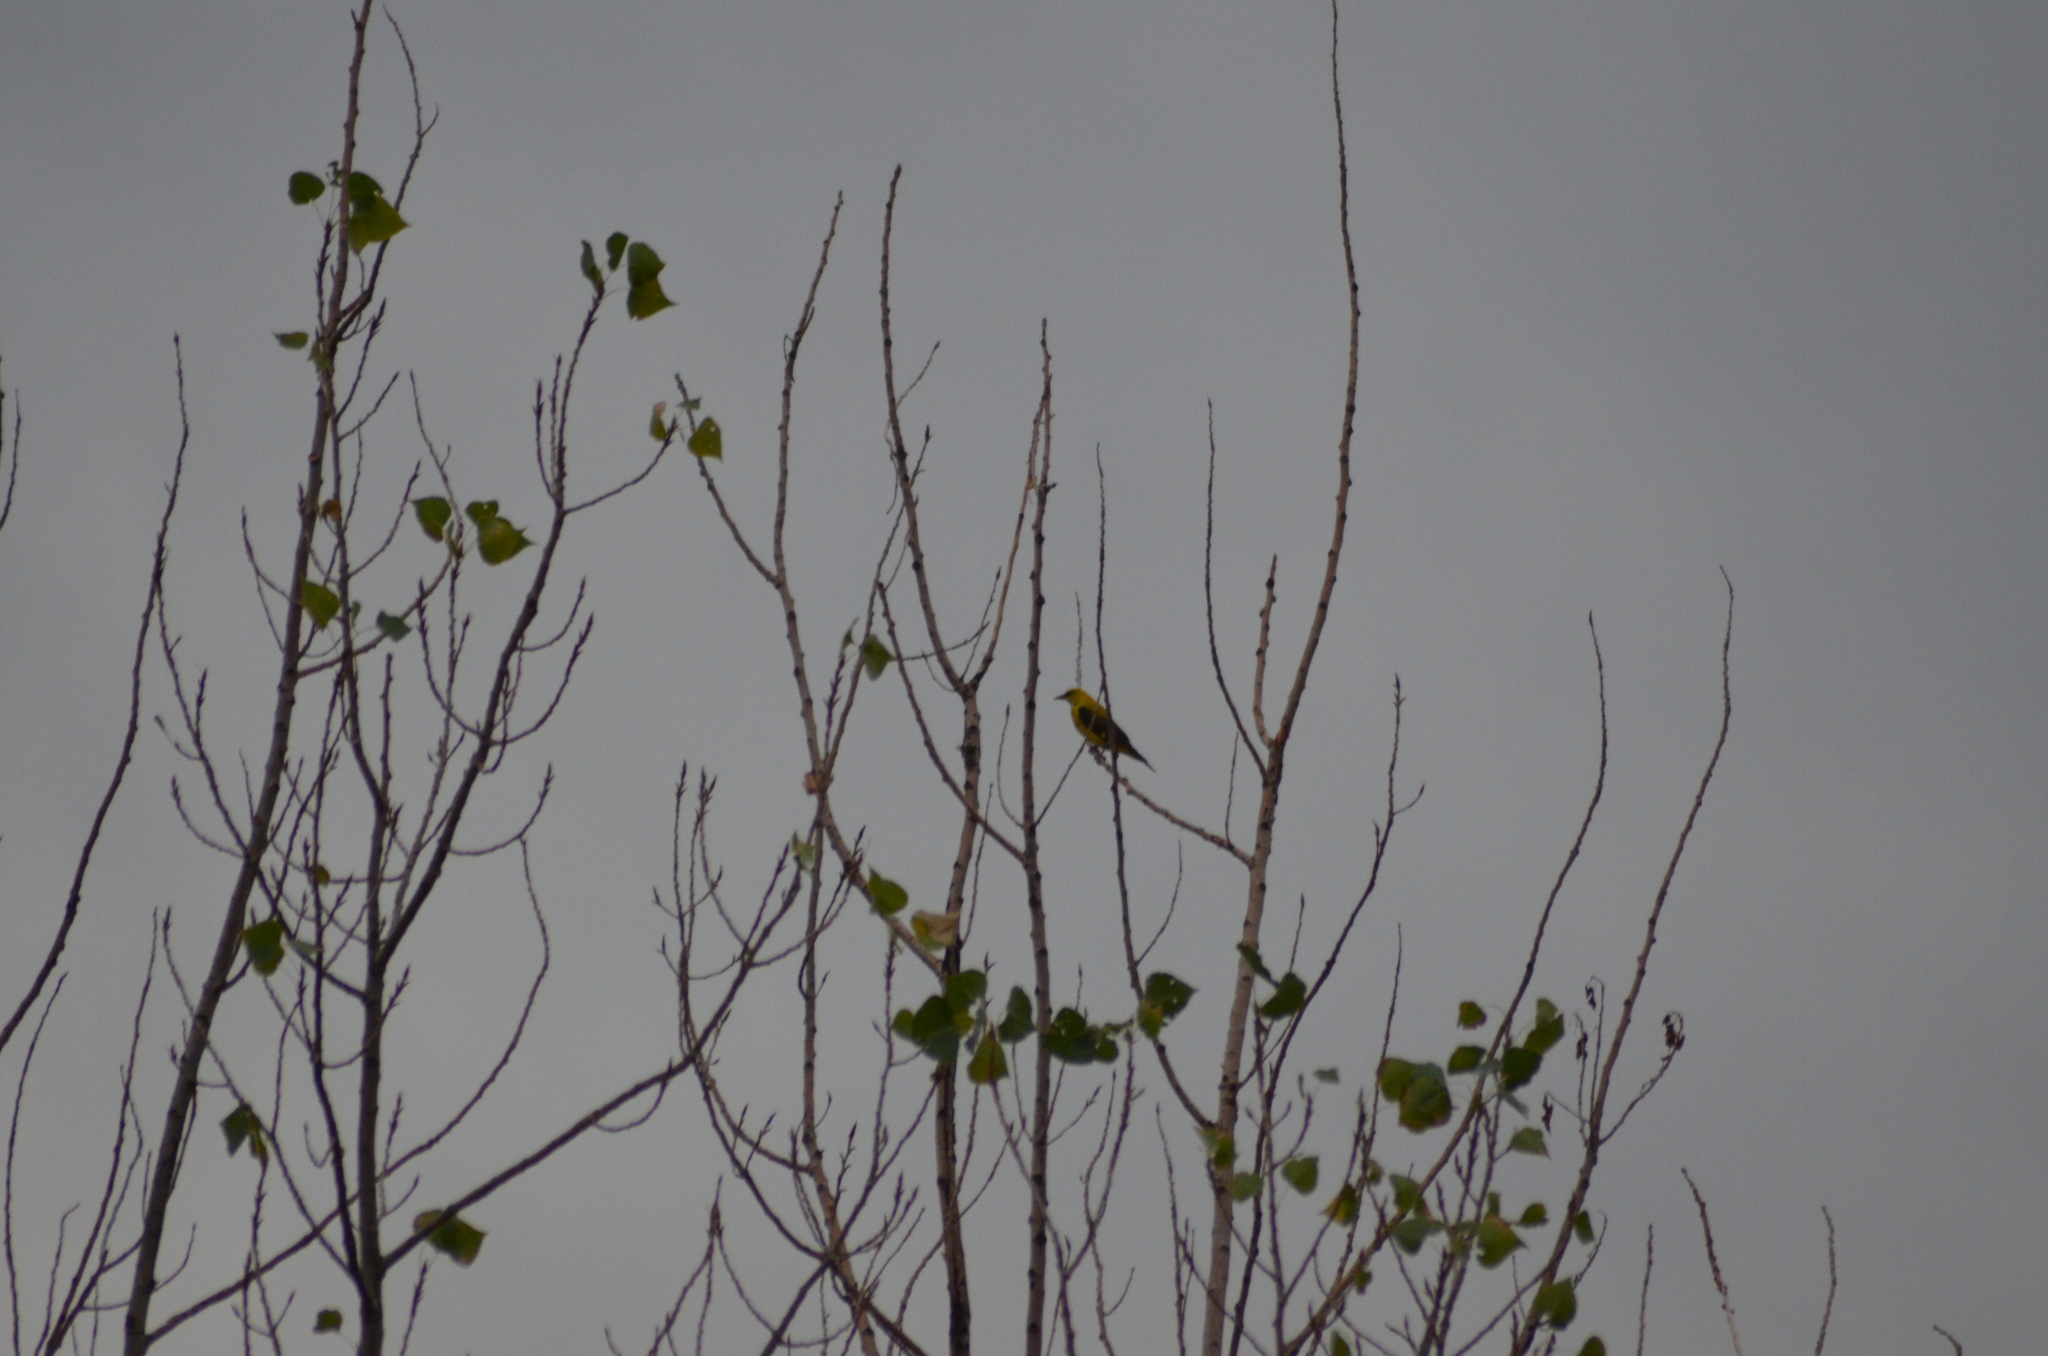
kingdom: Animalia
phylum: Chordata
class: Aves
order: Passeriformes
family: Oriolidae
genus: Oriolus
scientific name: Oriolus oriolus
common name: Eurasian golden oriole
